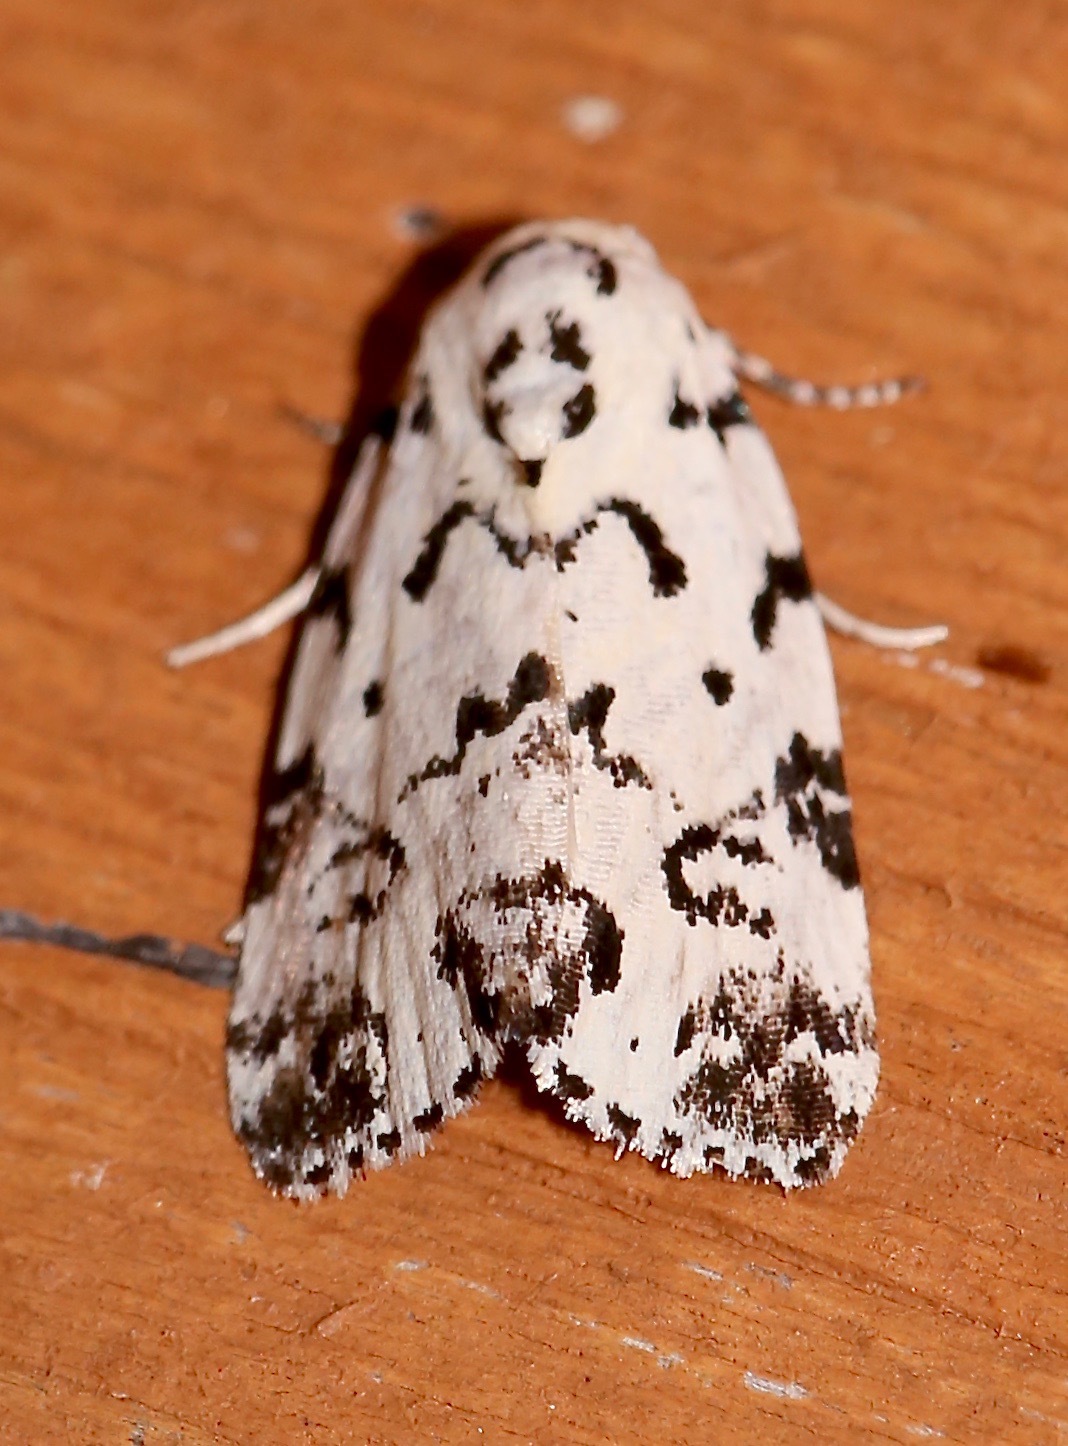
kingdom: Animalia
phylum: Arthropoda
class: Insecta
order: Lepidoptera
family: Noctuidae
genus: Polygrammate
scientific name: Polygrammate hebraeicum
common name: Hebrew moth
